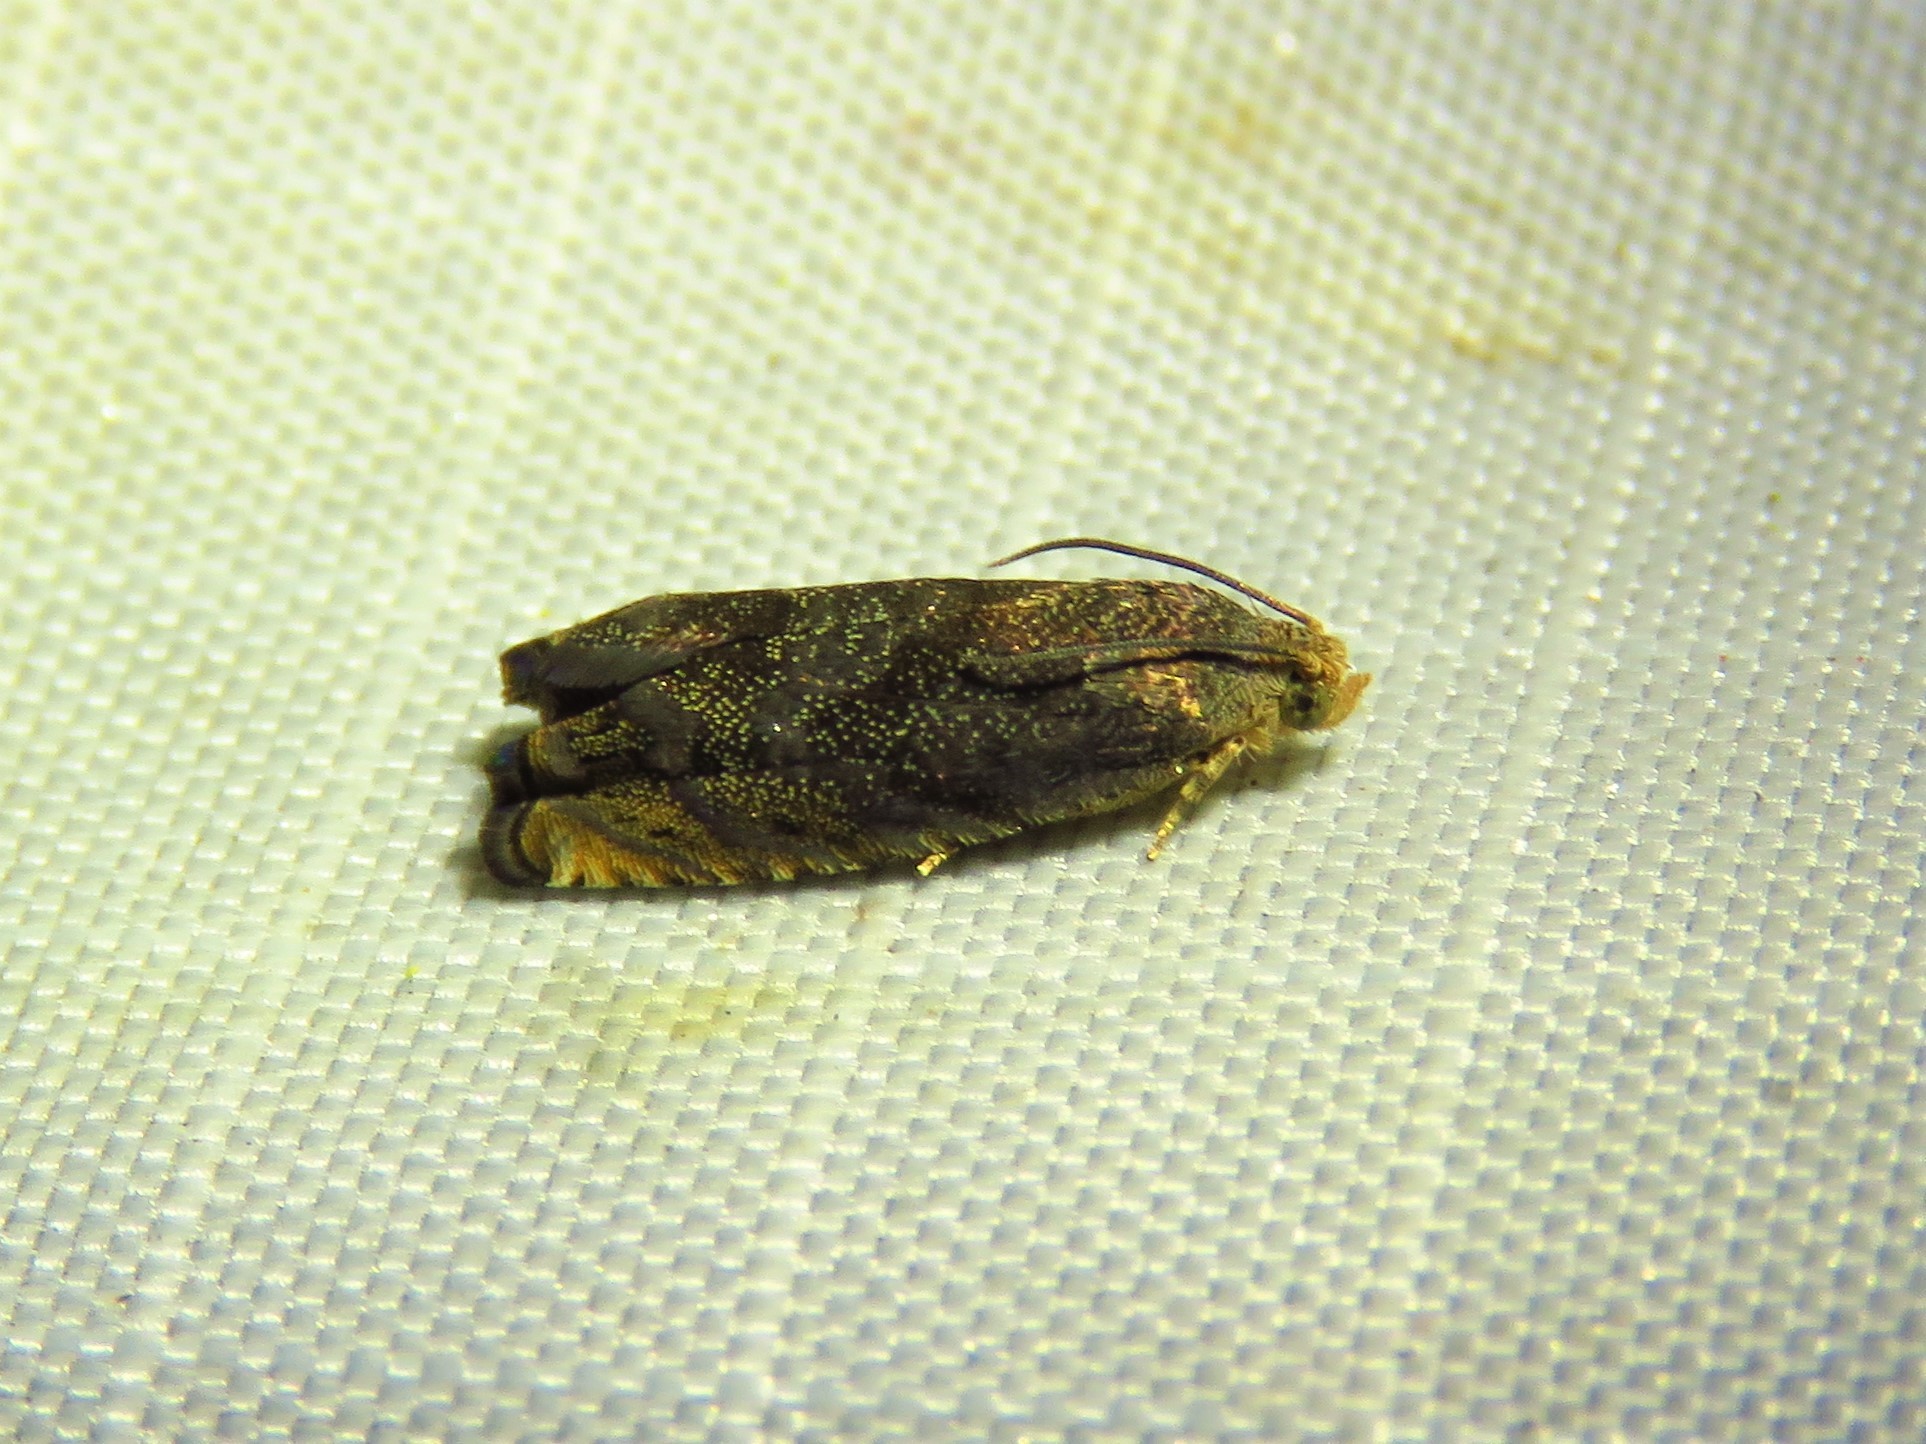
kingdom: Animalia
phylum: Arthropoda
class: Insecta
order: Lepidoptera
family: Tortricidae
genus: Cydia
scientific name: Cydia caryana
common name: Hickory shuckworm moth
